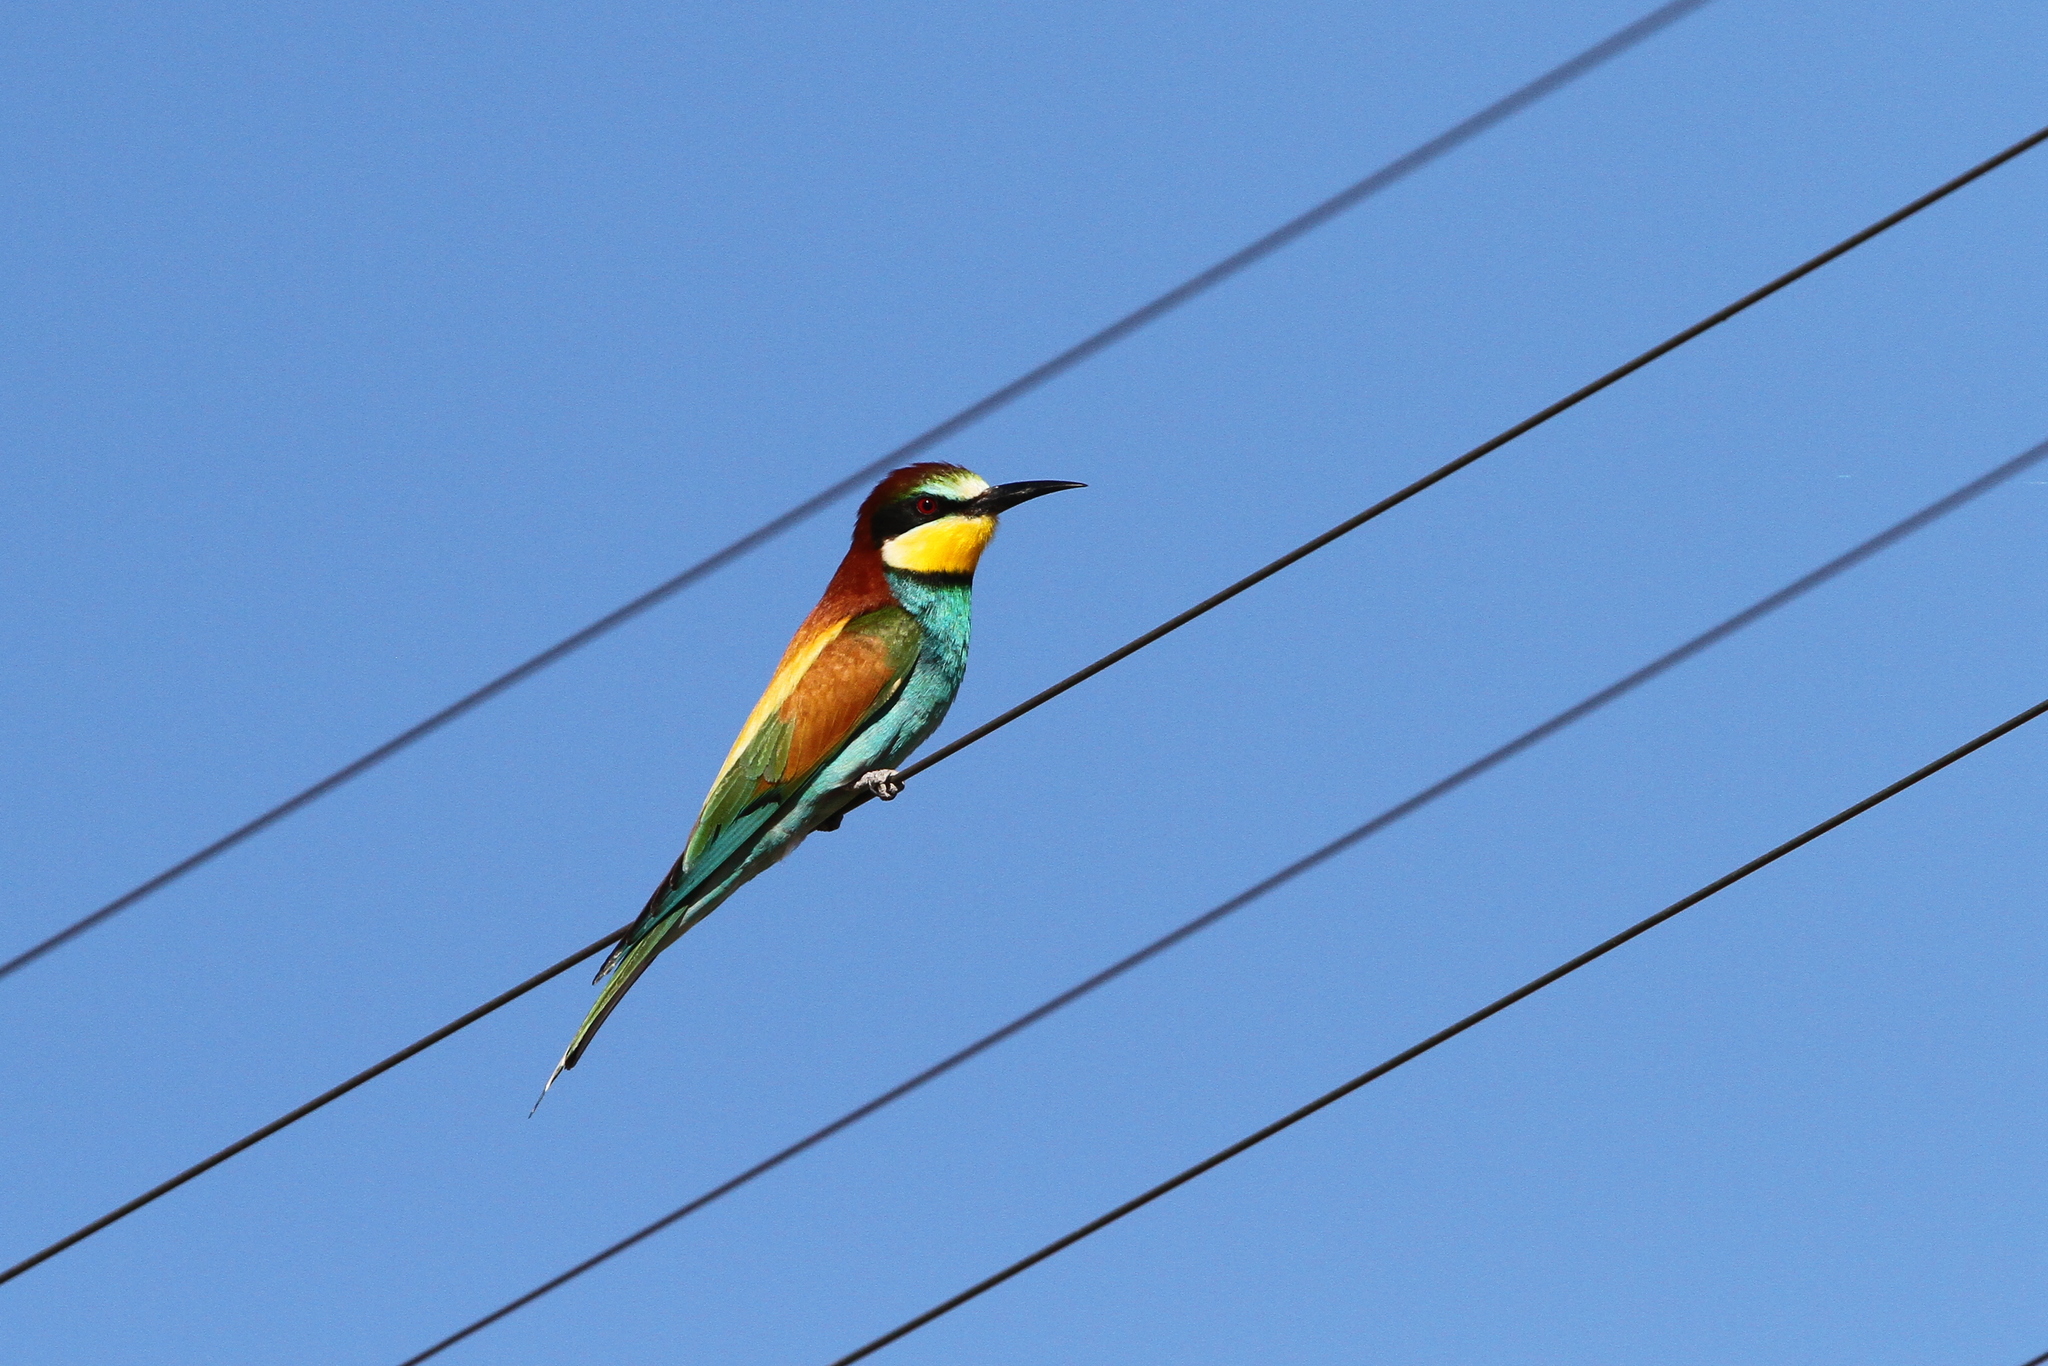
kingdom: Animalia
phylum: Chordata
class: Aves
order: Coraciiformes
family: Meropidae
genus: Merops
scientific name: Merops apiaster
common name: European bee-eater
